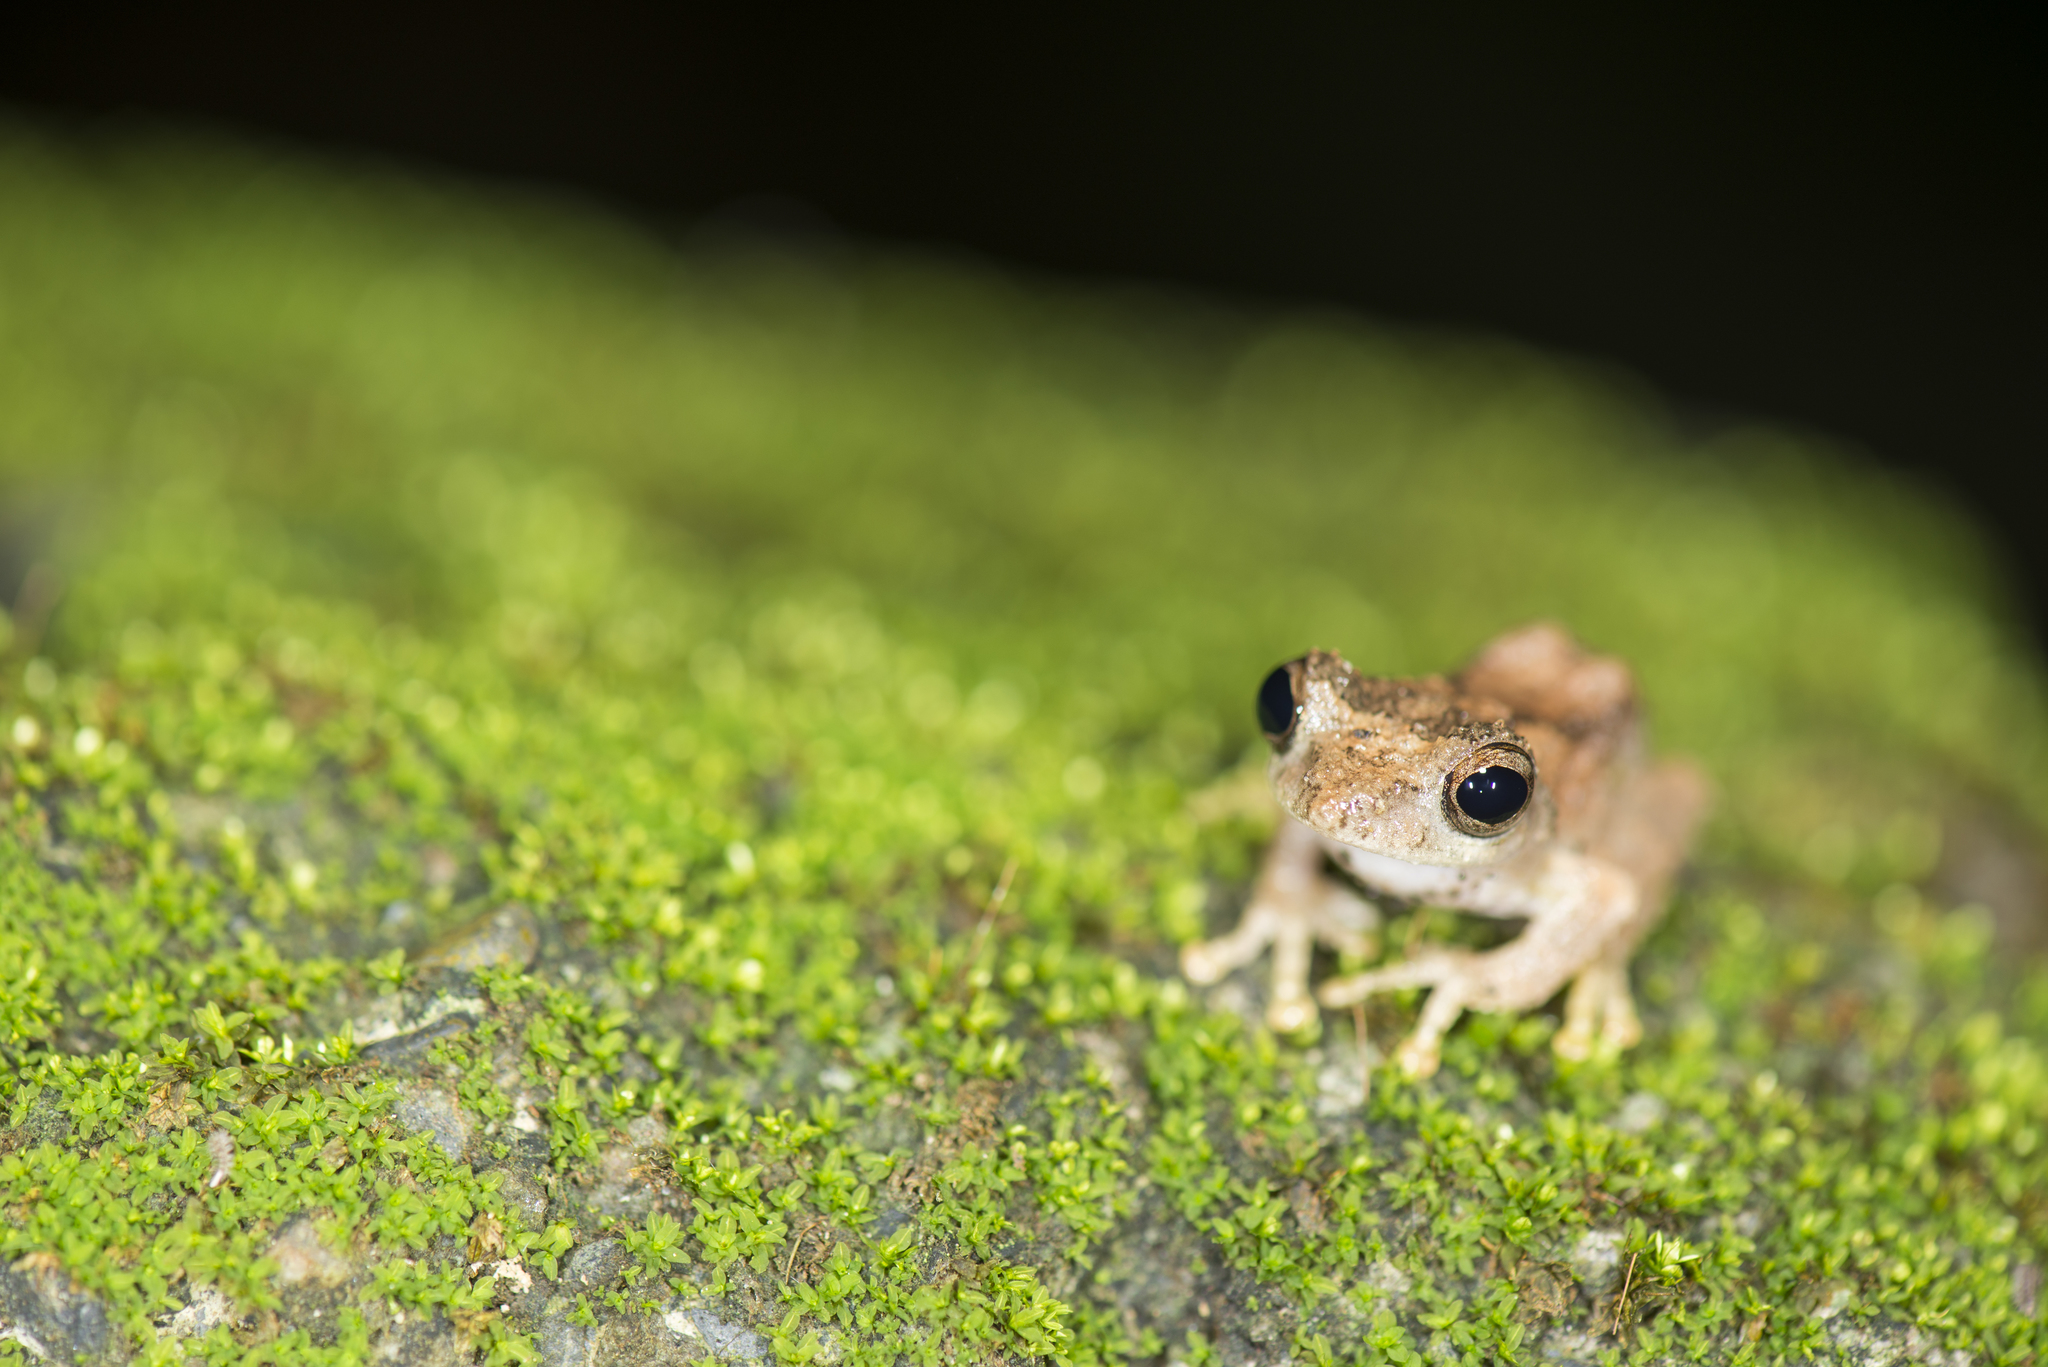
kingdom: Animalia
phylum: Chordata
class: Amphibia
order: Anura
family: Rhacophoridae
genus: Kurixalus
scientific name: Kurixalus idiootocus
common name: Temple treefrog
